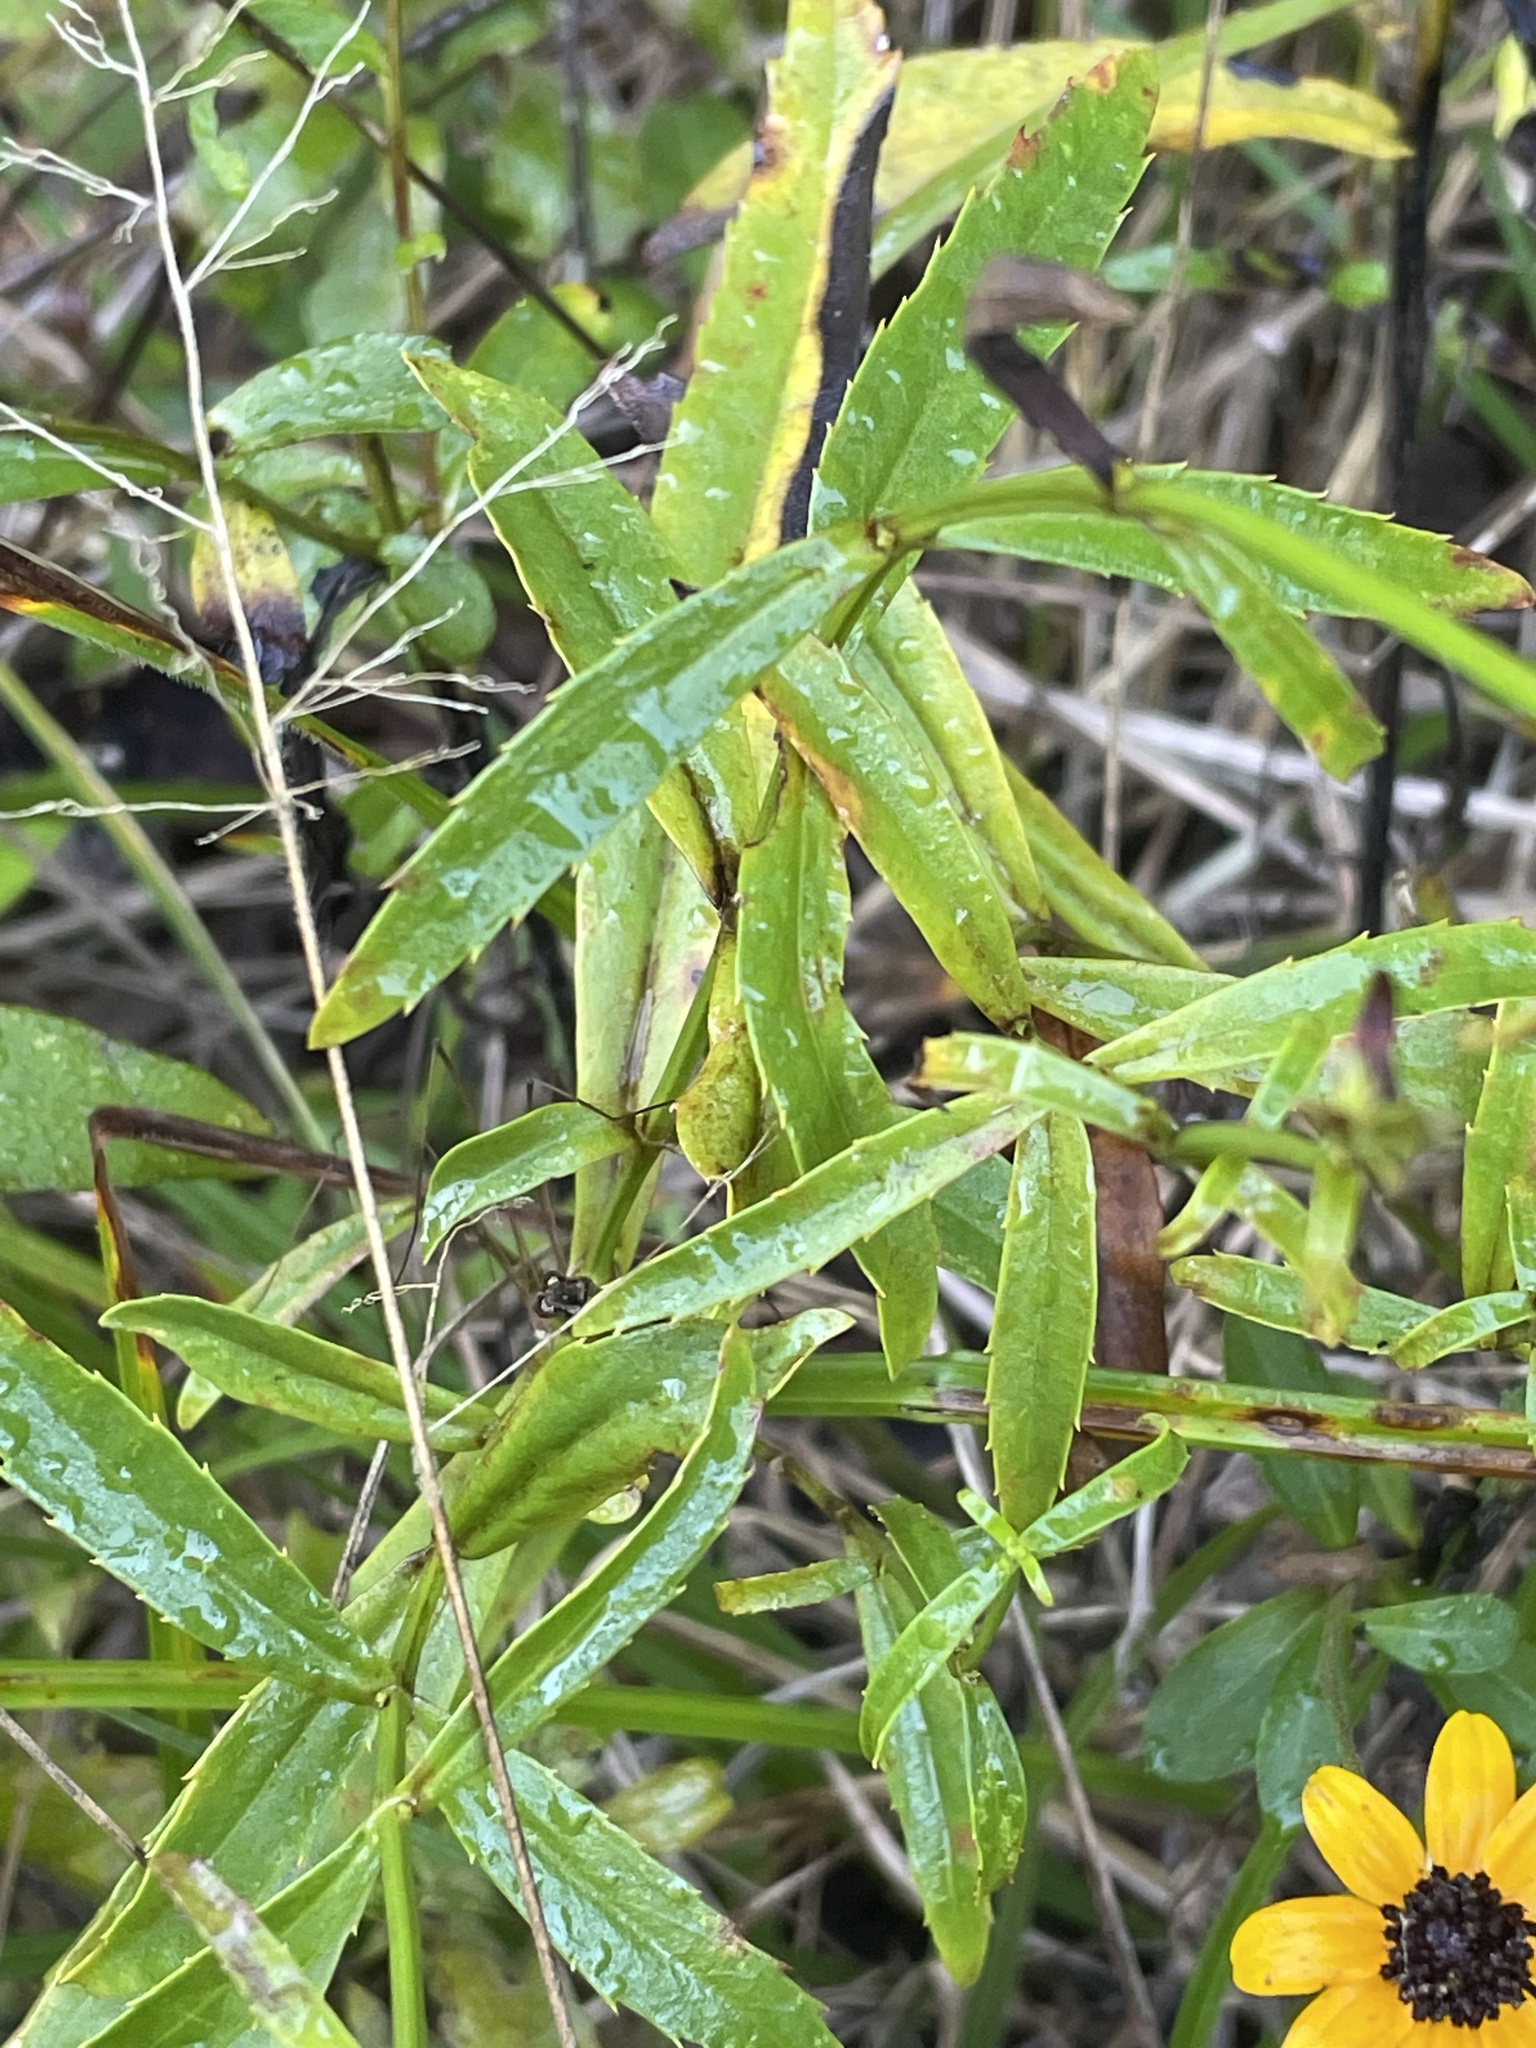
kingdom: Plantae
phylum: Tracheophyta
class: Magnoliopsida
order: Lamiales
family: Lamiaceae
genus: Physostegia
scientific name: Physostegia virginiana
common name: Obedient-plant
